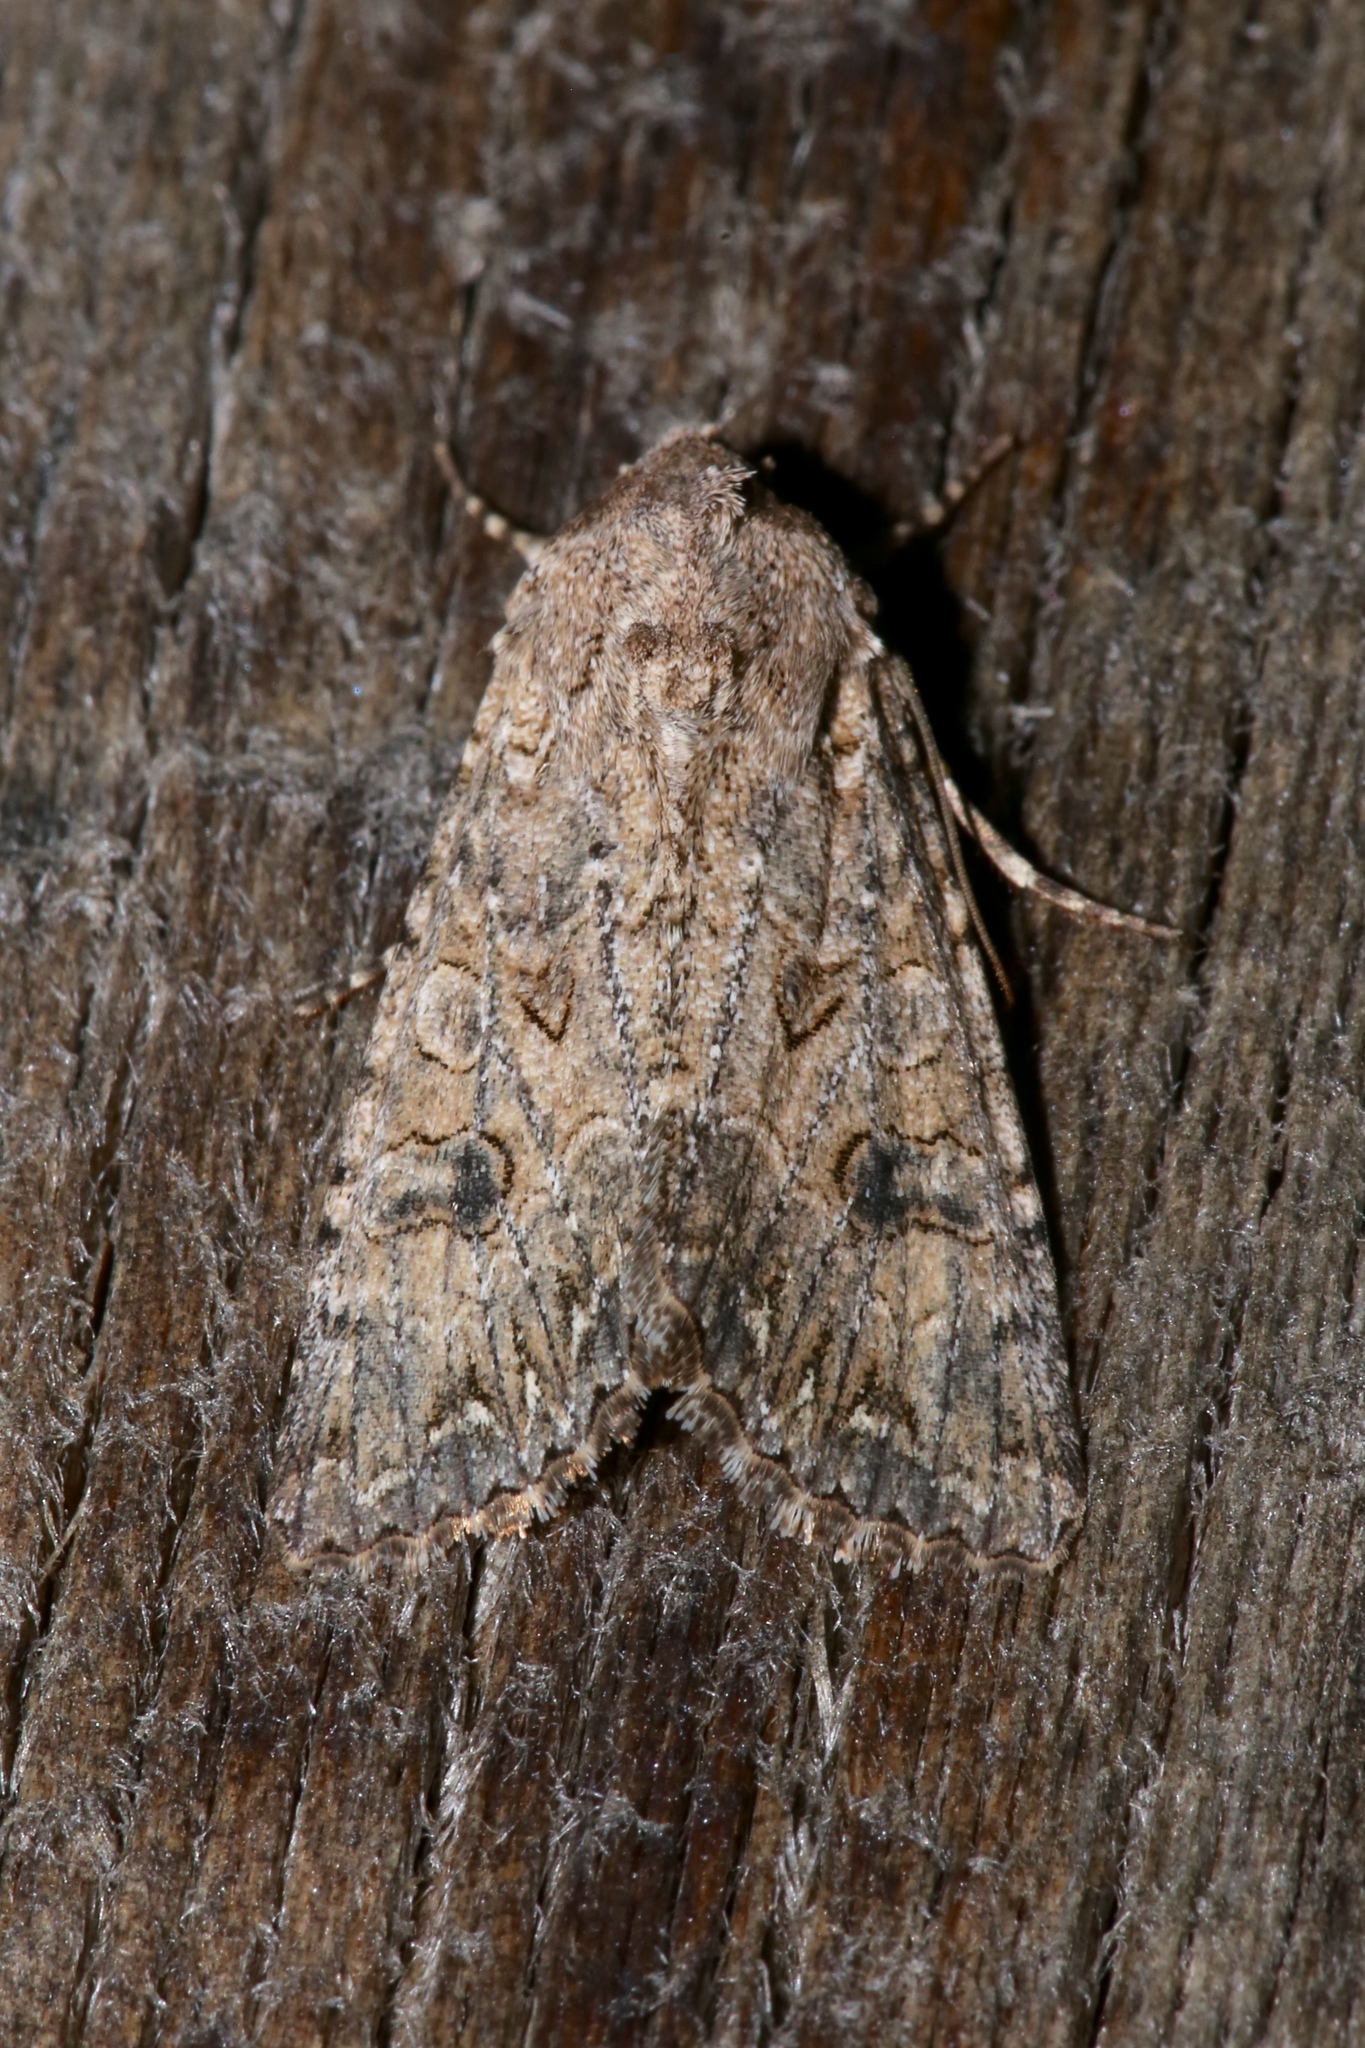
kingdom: Animalia
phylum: Arthropoda
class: Insecta
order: Lepidoptera
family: Noctuidae
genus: Anarta
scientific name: Anarta trifolii
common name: Clover cutworm moth
